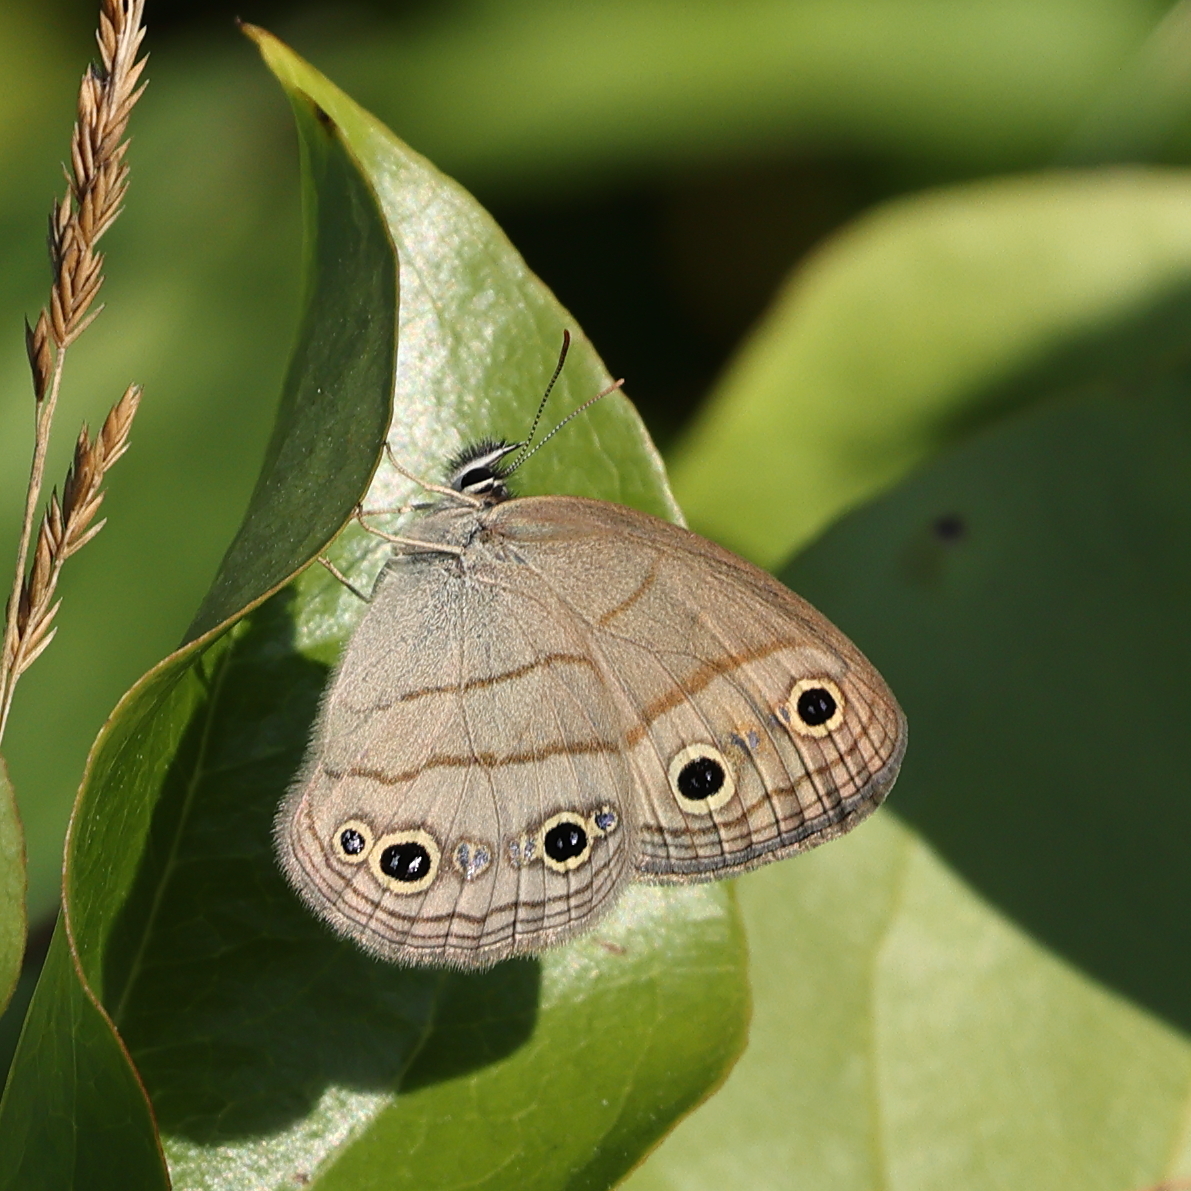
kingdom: Animalia
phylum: Arthropoda
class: Insecta
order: Lepidoptera
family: Nymphalidae
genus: Euptychia
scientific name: Euptychia cymela
